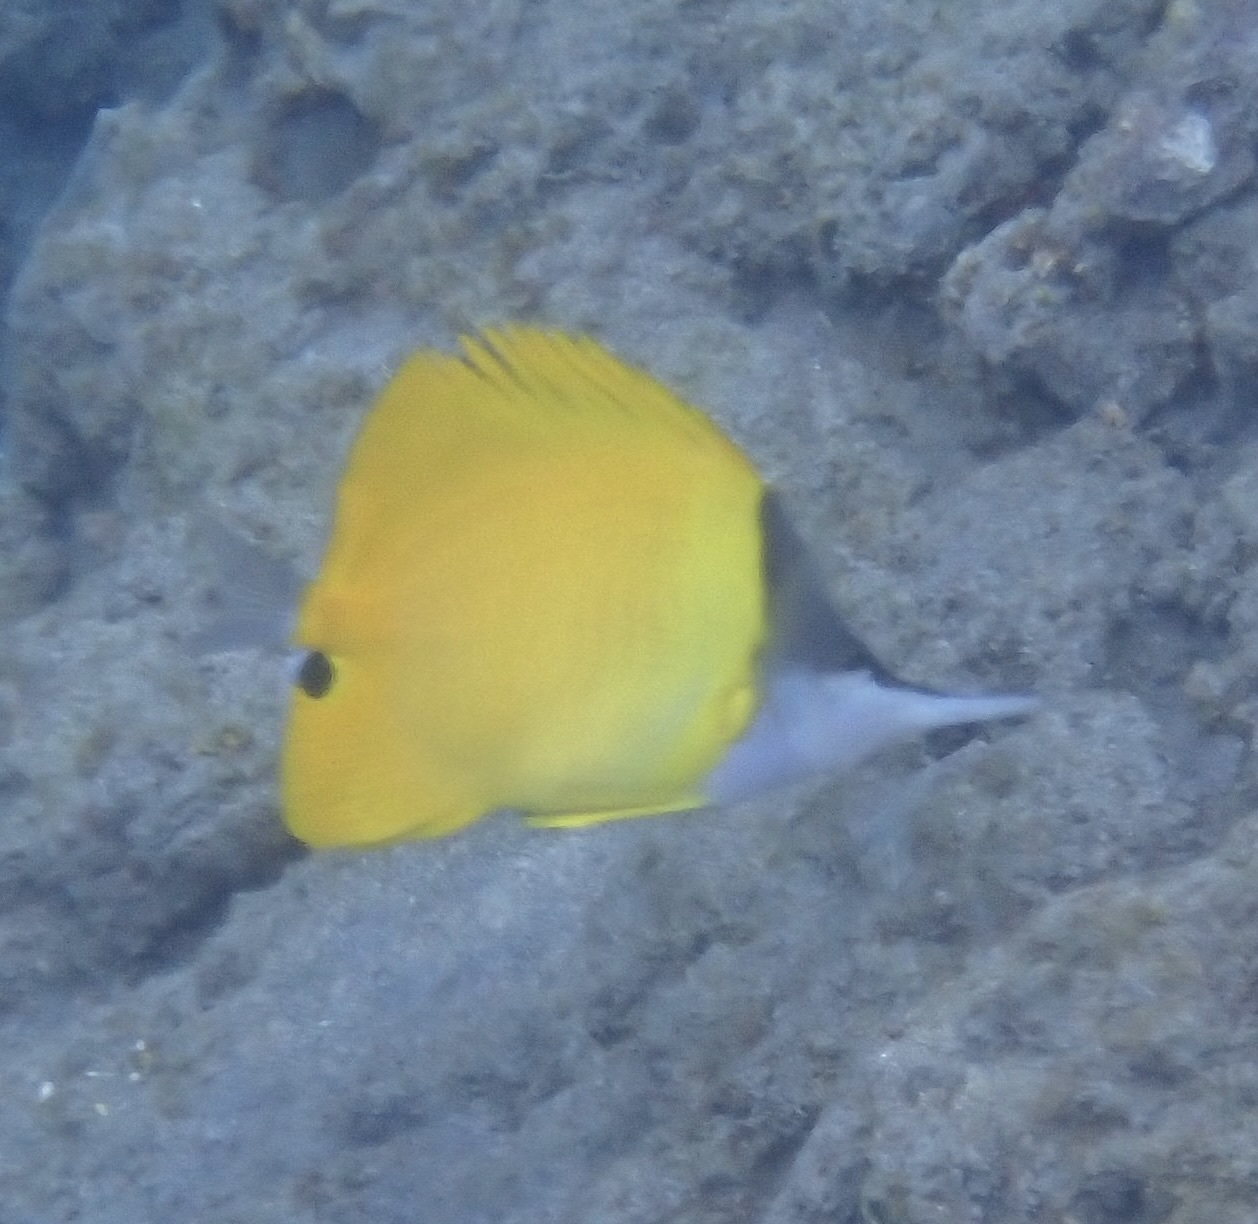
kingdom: Animalia
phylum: Chordata
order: Perciformes
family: Chaetodontidae
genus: Forcipiger
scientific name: Forcipiger flavissimus
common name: Forcepsfish
